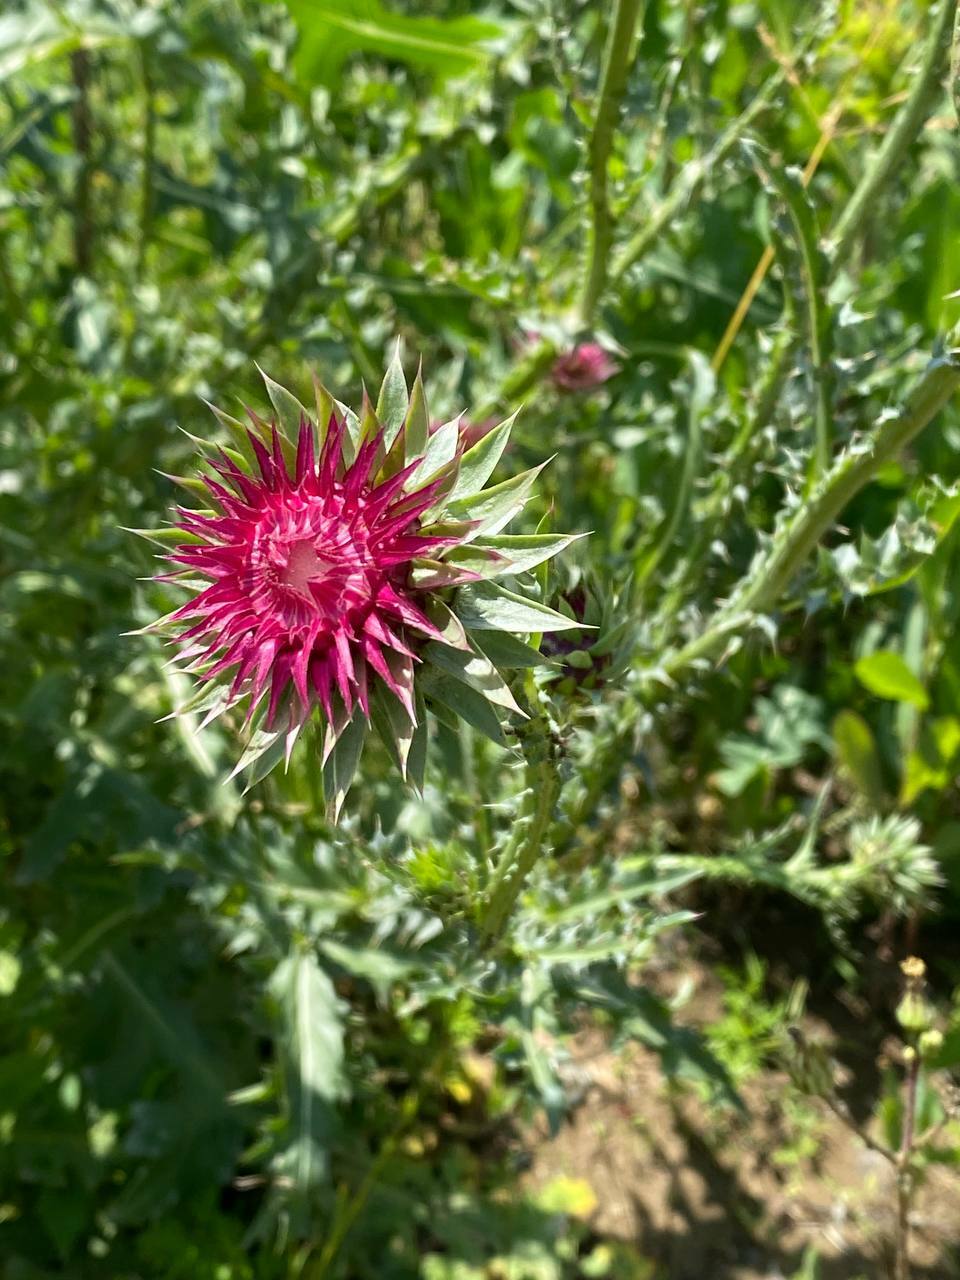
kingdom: Plantae
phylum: Tracheophyta
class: Magnoliopsida
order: Asterales
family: Asteraceae
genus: Carduus
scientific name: Carduus nutans
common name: Musk thistle
